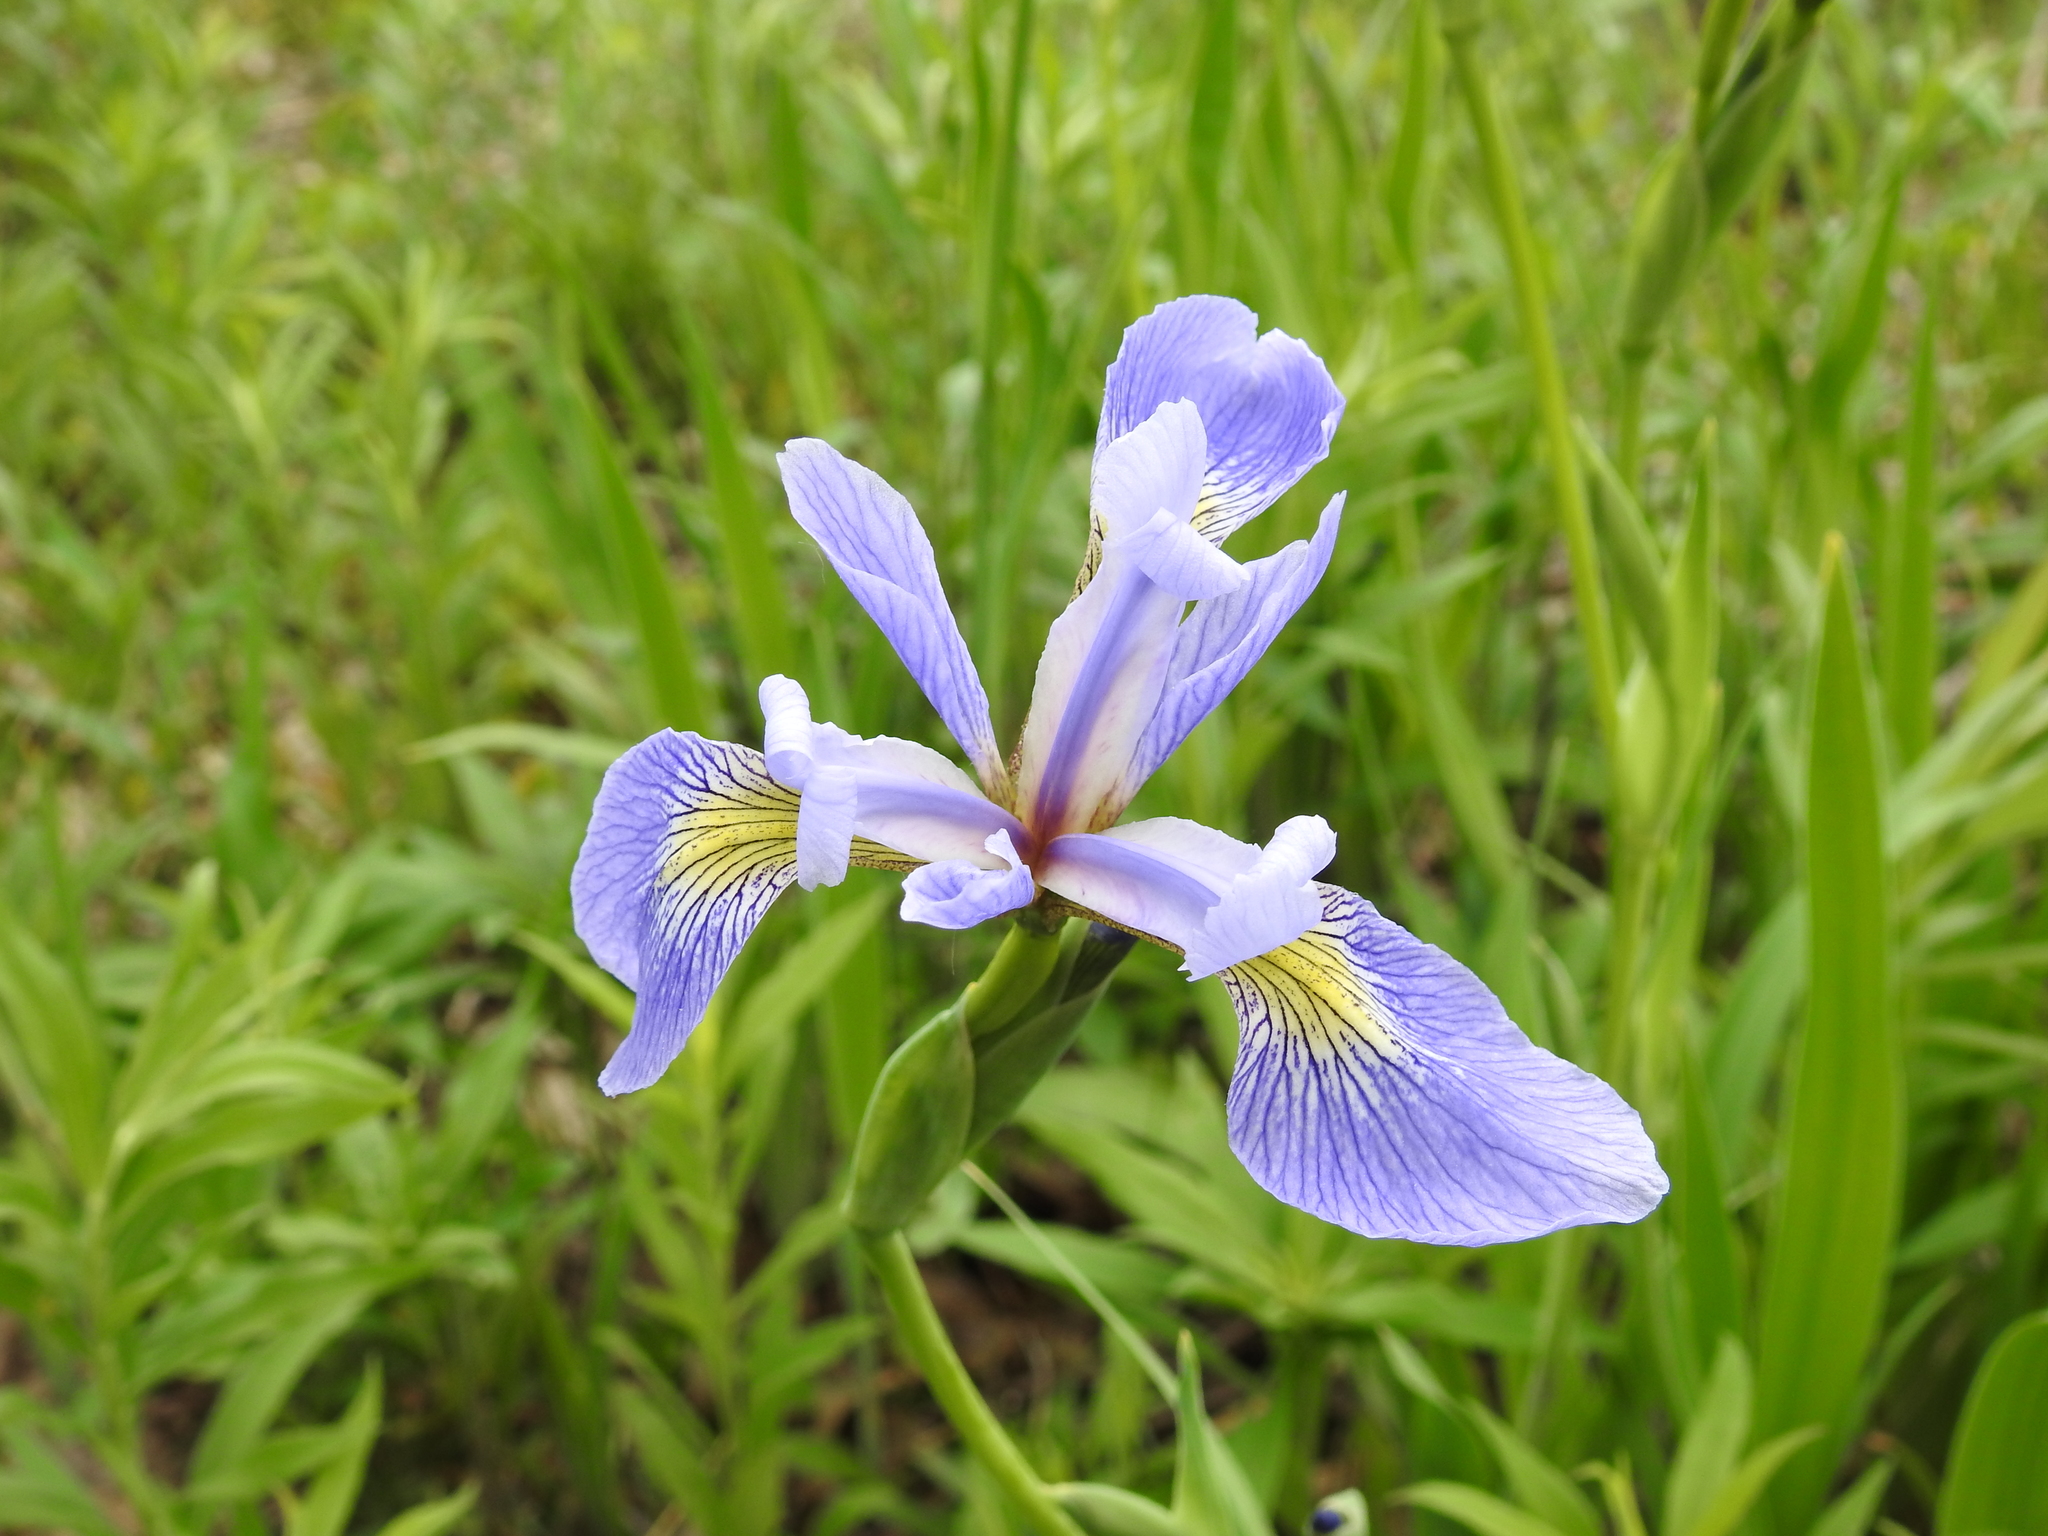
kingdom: Plantae
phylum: Tracheophyta
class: Liliopsida
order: Asparagales
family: Iridaceae
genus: Iris
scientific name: Iris versicolor
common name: Purple iris
